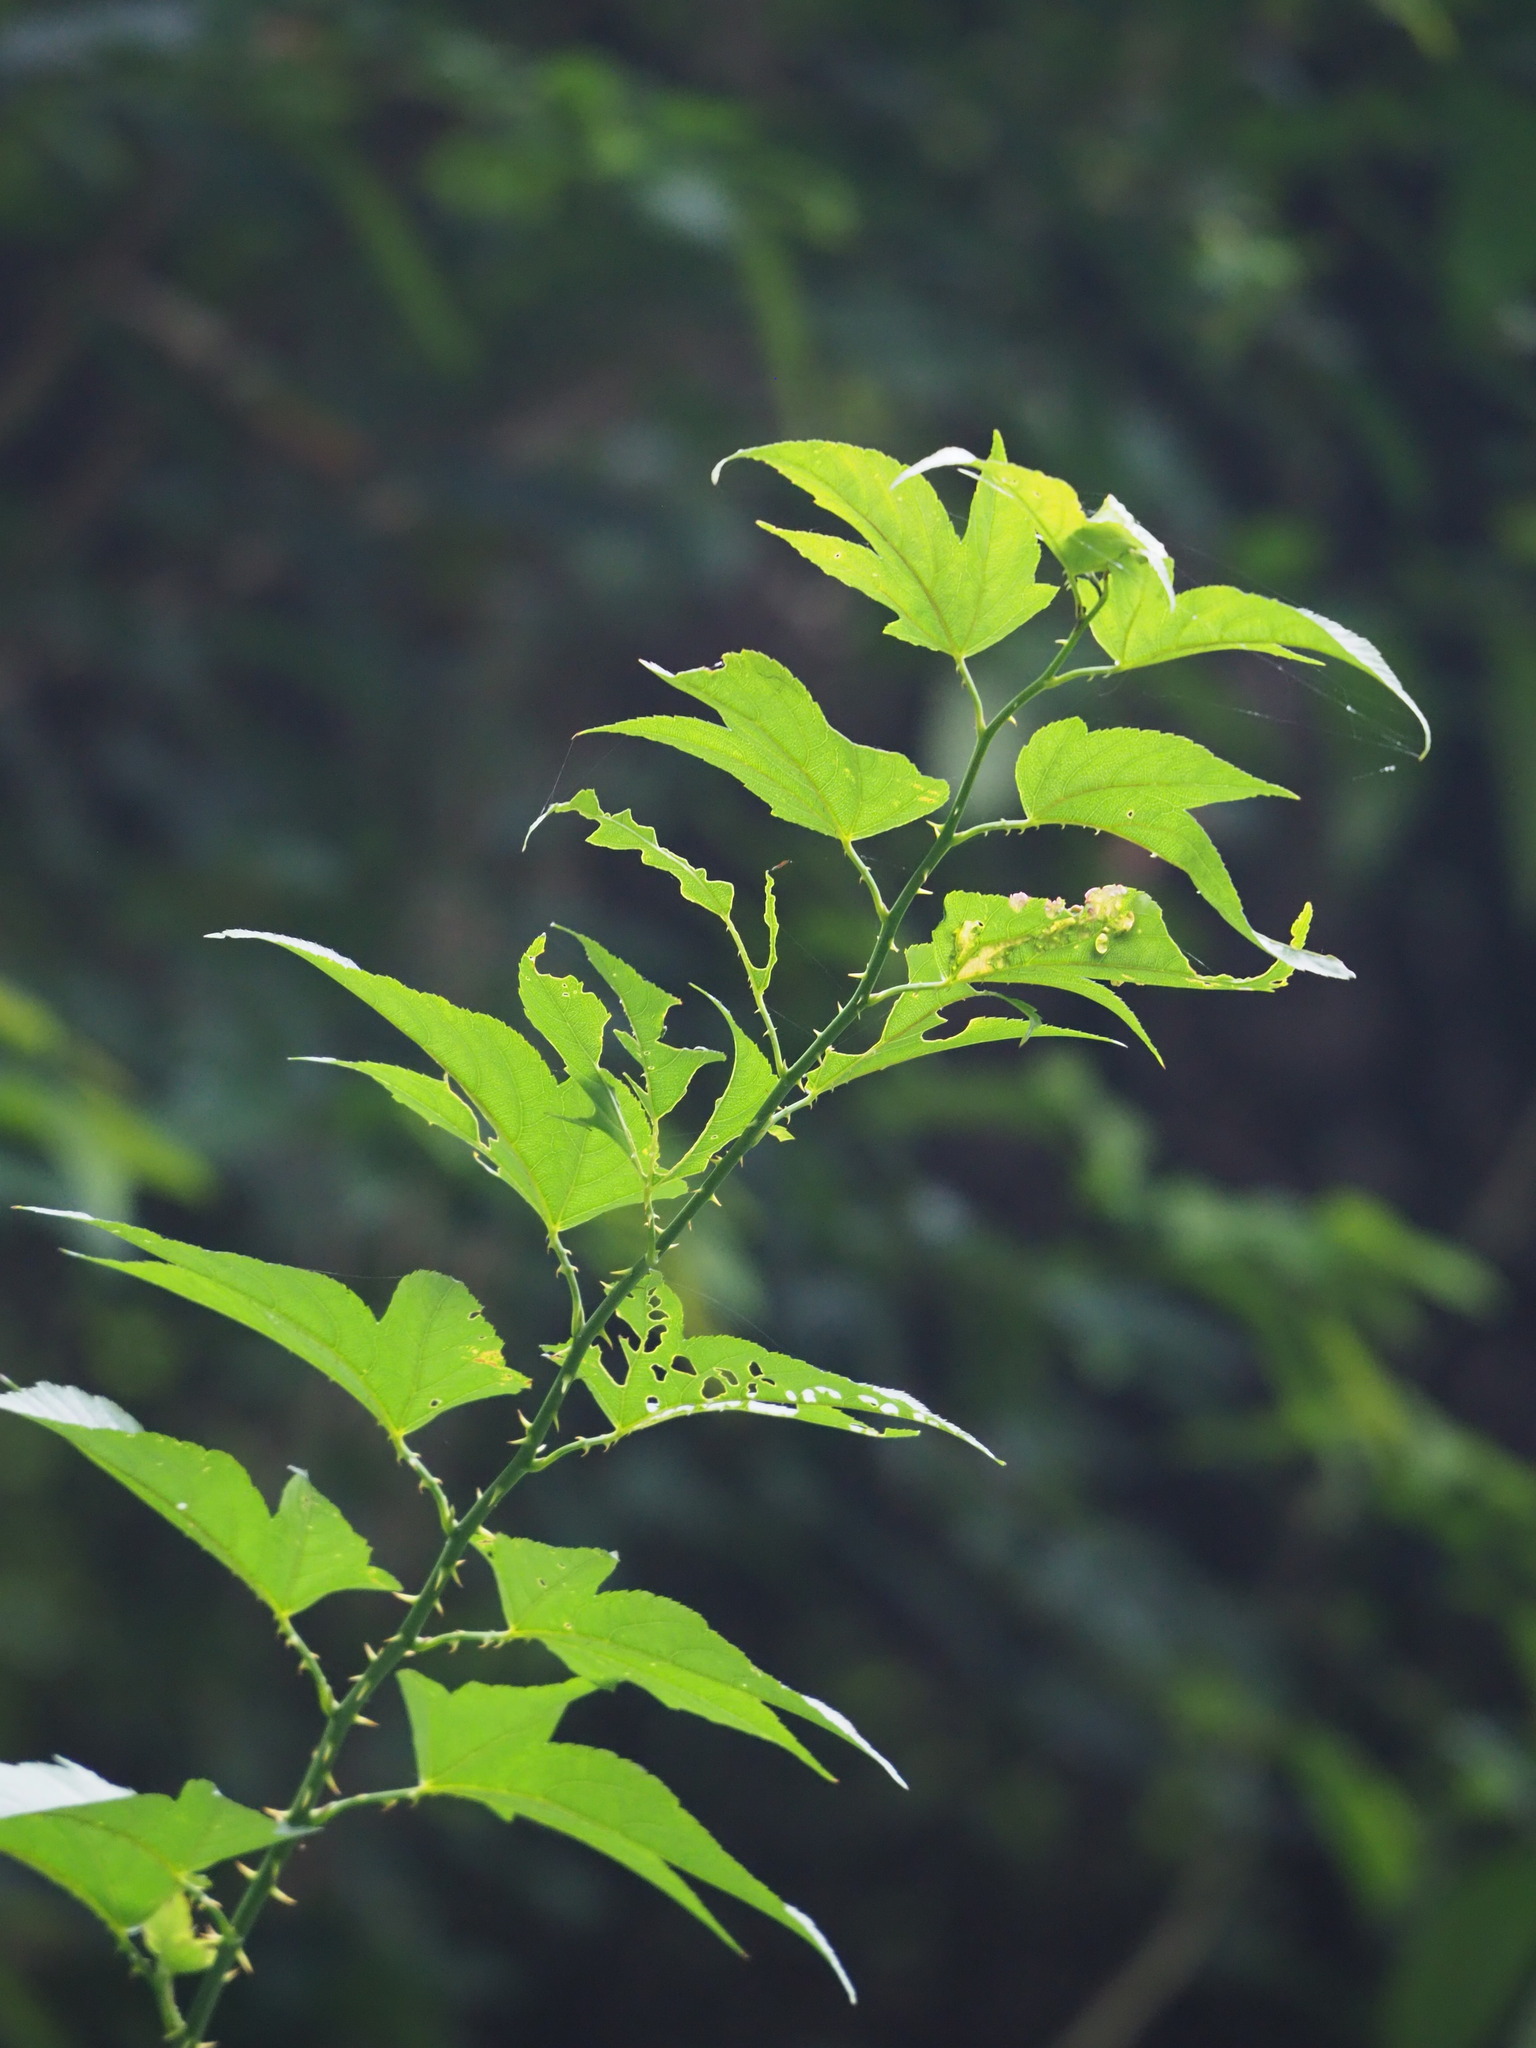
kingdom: Plantae
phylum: Tracheophyta
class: Magnoliopsida
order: Rosales
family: Rosaceae
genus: Rubus
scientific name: Rubus corchorifolius
